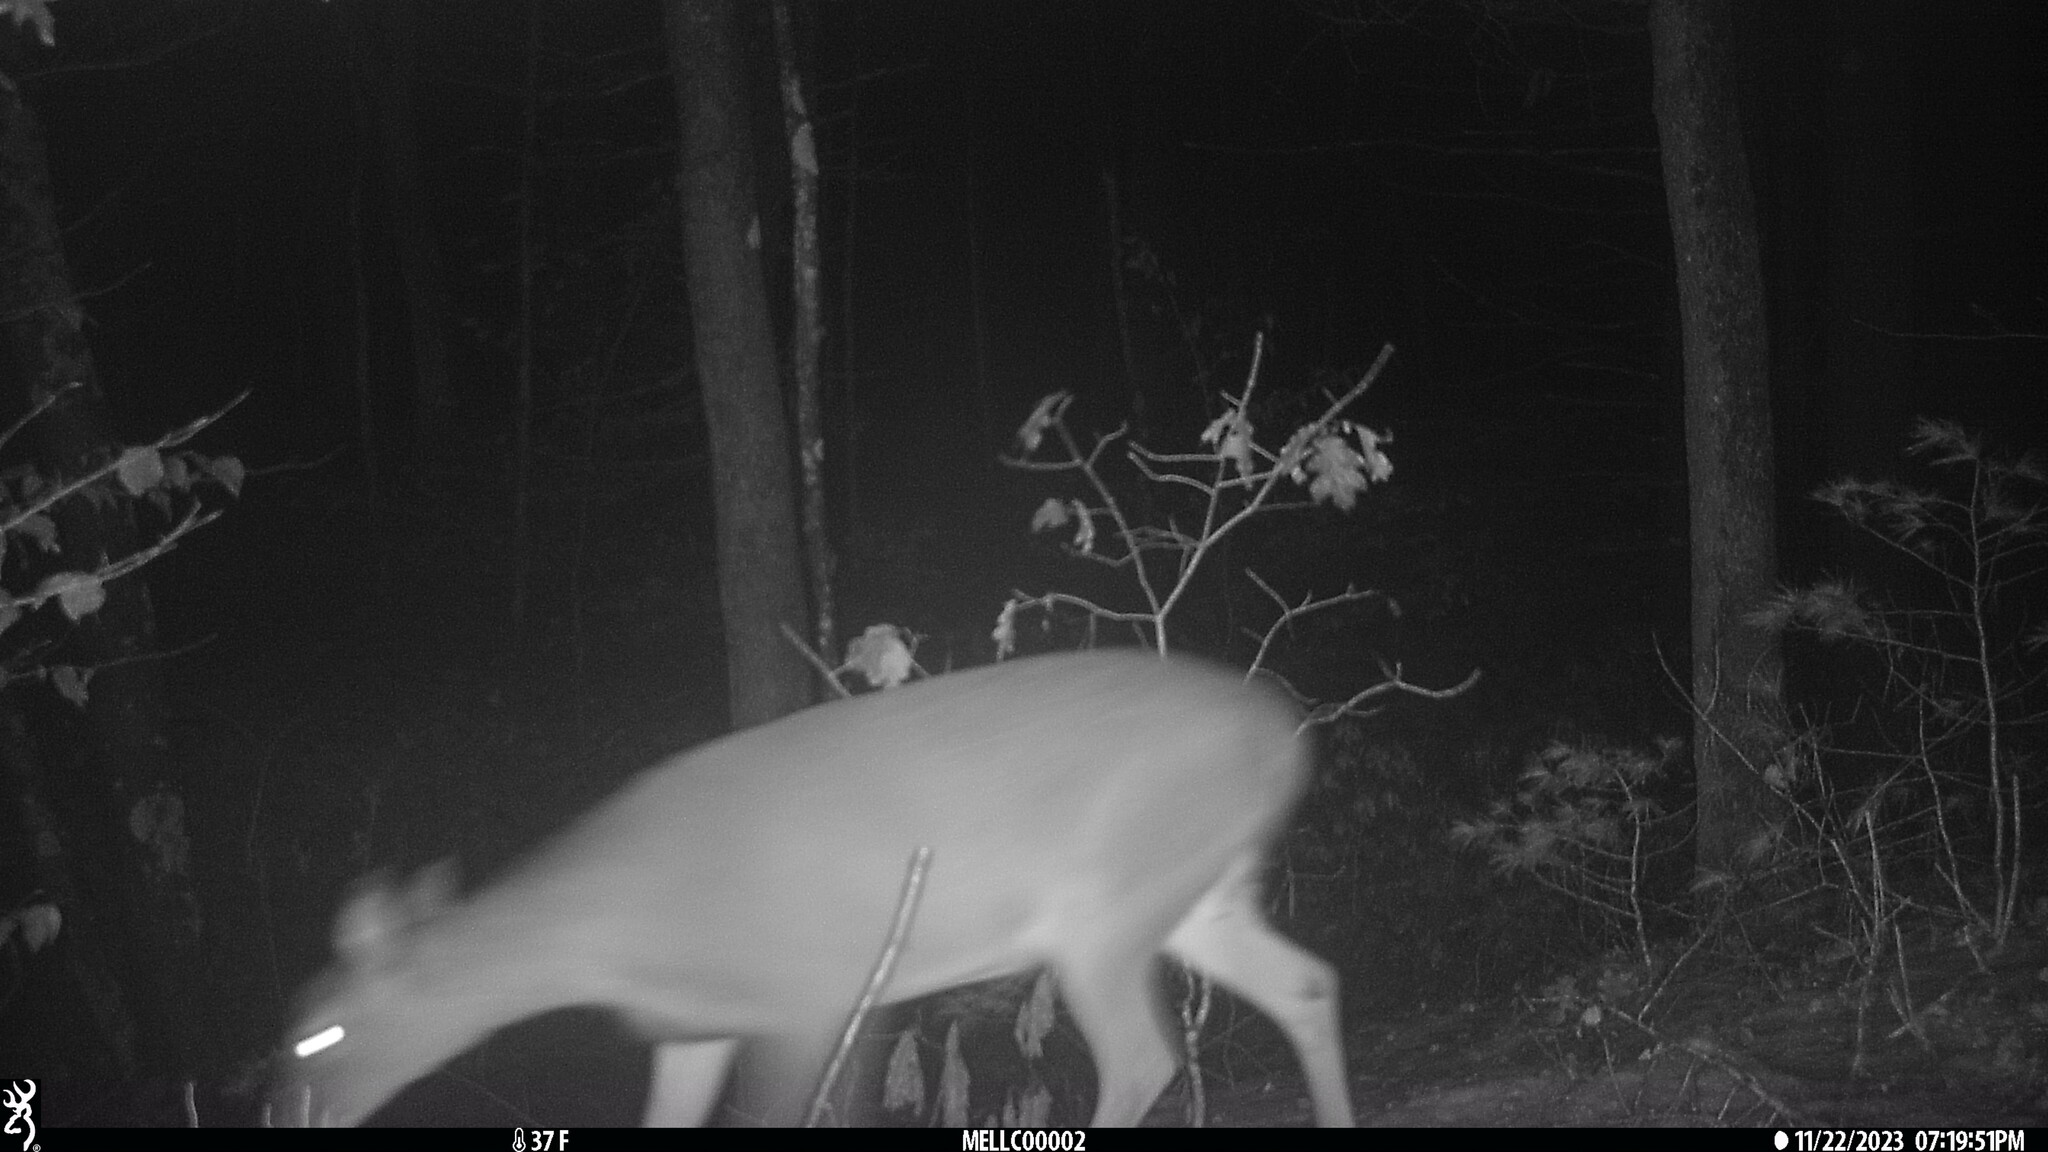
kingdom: Animalia
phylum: Chordata
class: Mammalia
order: Artiodactyla
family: Cervidae
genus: Odocoileus
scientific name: Odocoileus virginianus
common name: White-tailed deer
